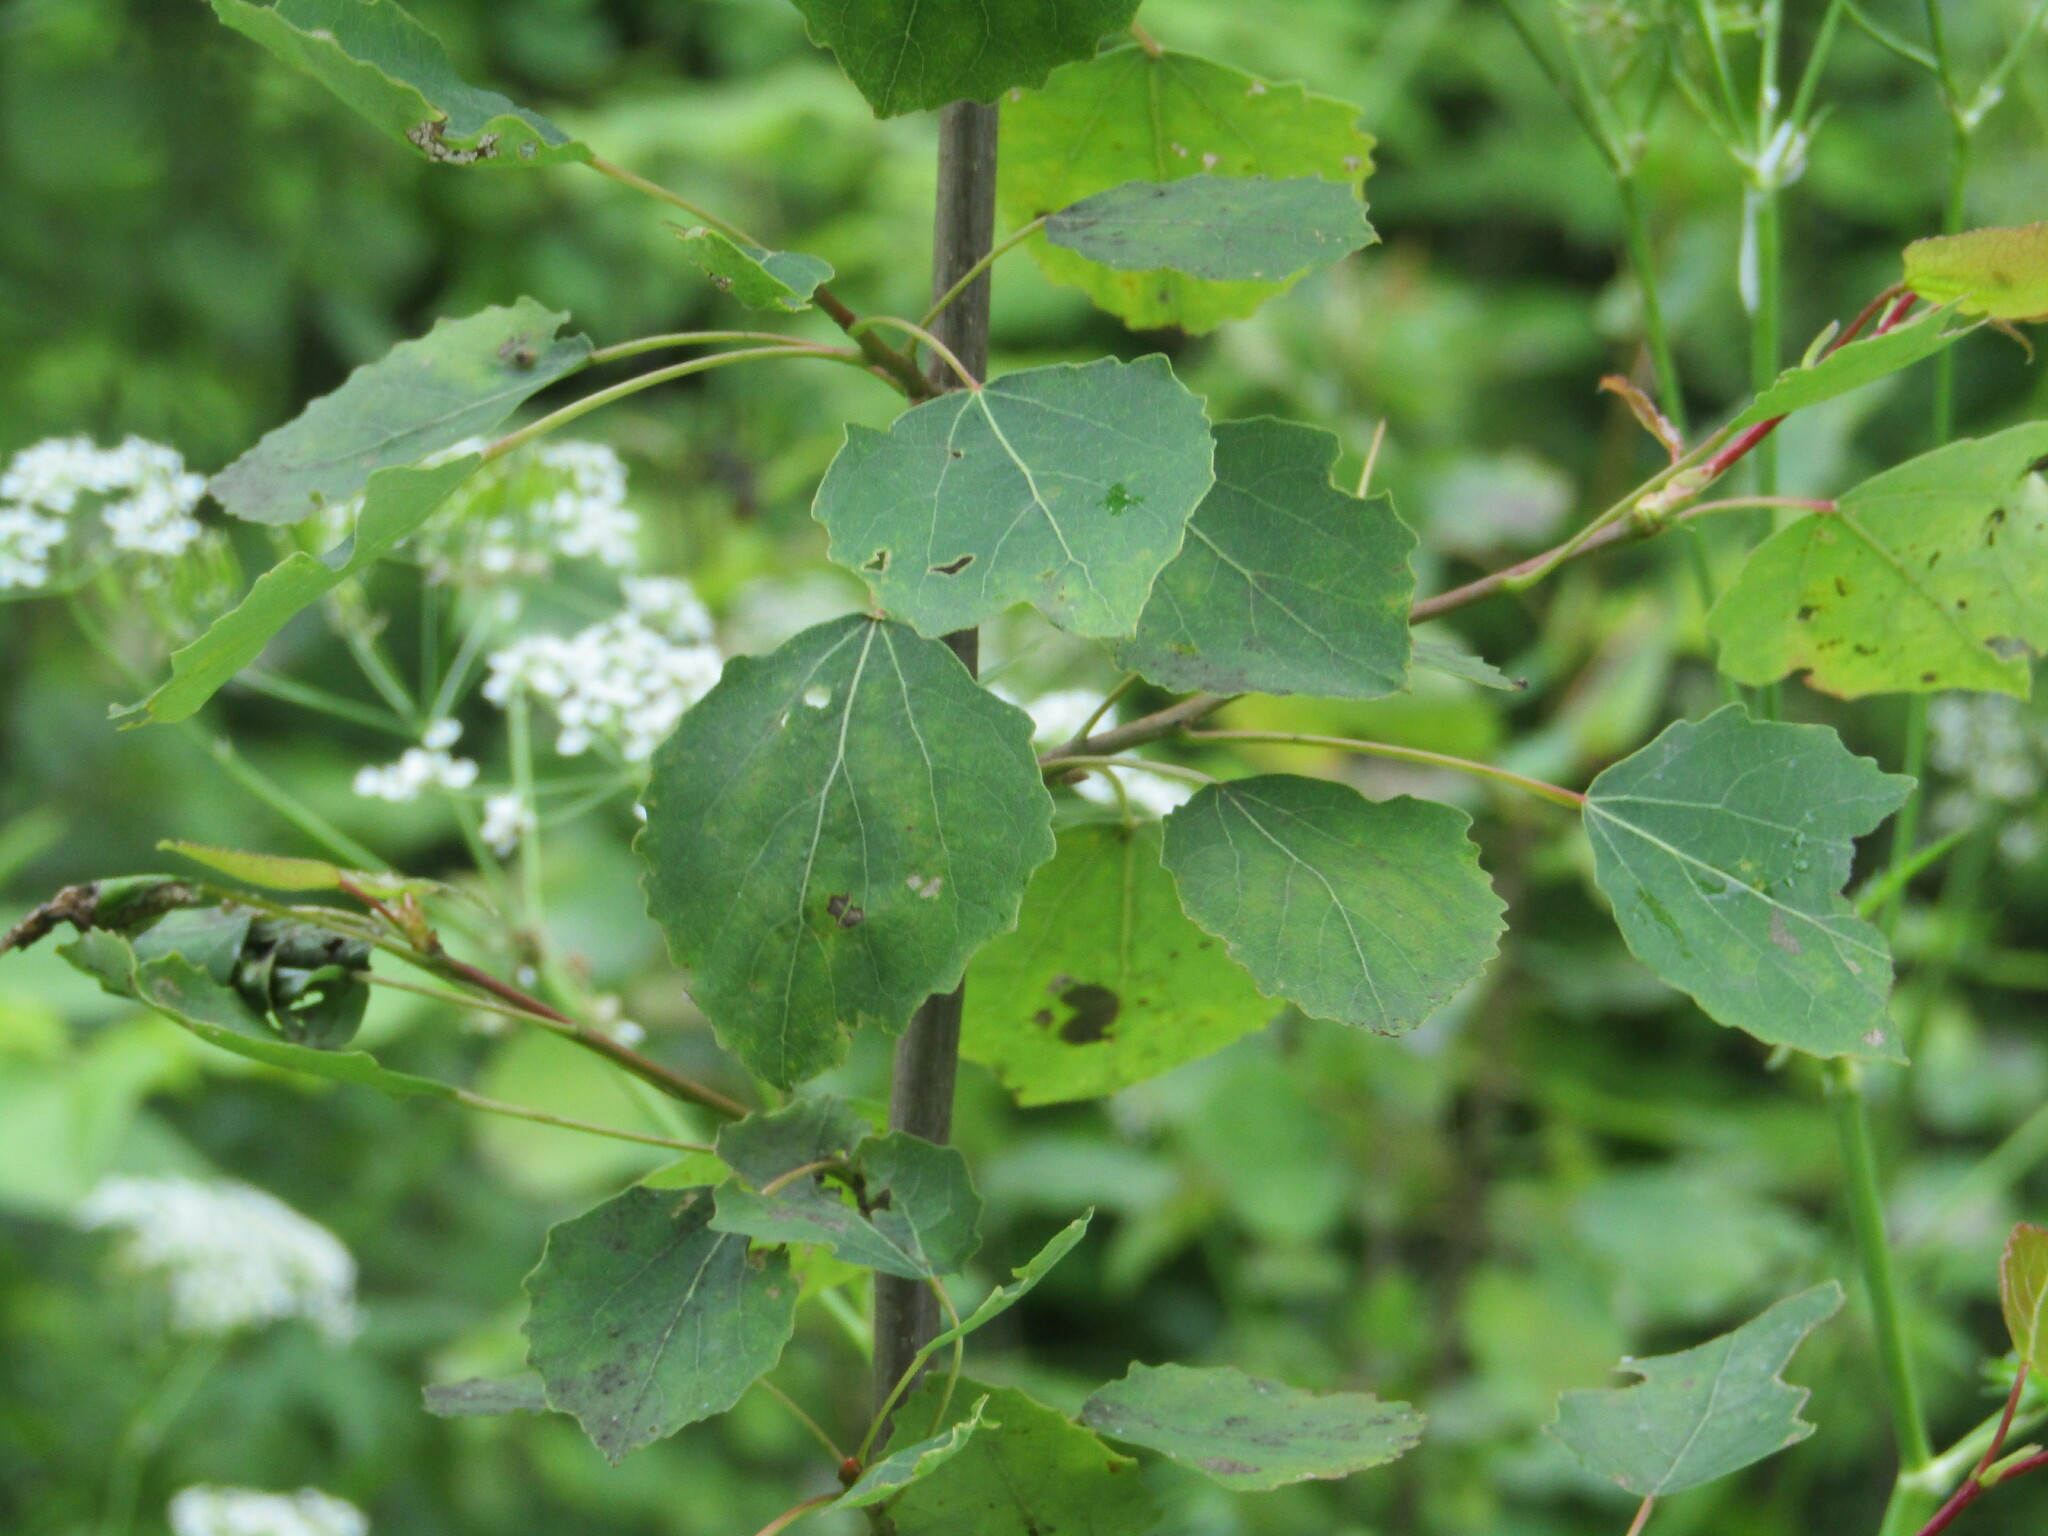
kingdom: Plantae
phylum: Tracheophyta
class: Magnoliopsida
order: Malpighiales
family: Salicaceae
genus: Populus
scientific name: Populus tremula
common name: European aspen
